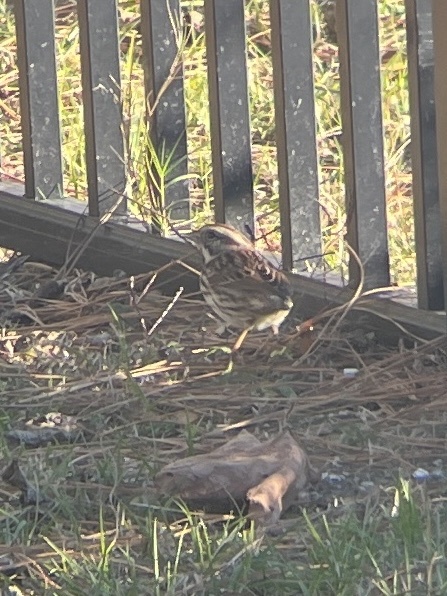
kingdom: Animalia
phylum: Chordata
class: Aves
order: Passeriformes
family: Passerellidae
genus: Melospiza
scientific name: Melospiza melodia
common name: Song sparrow
